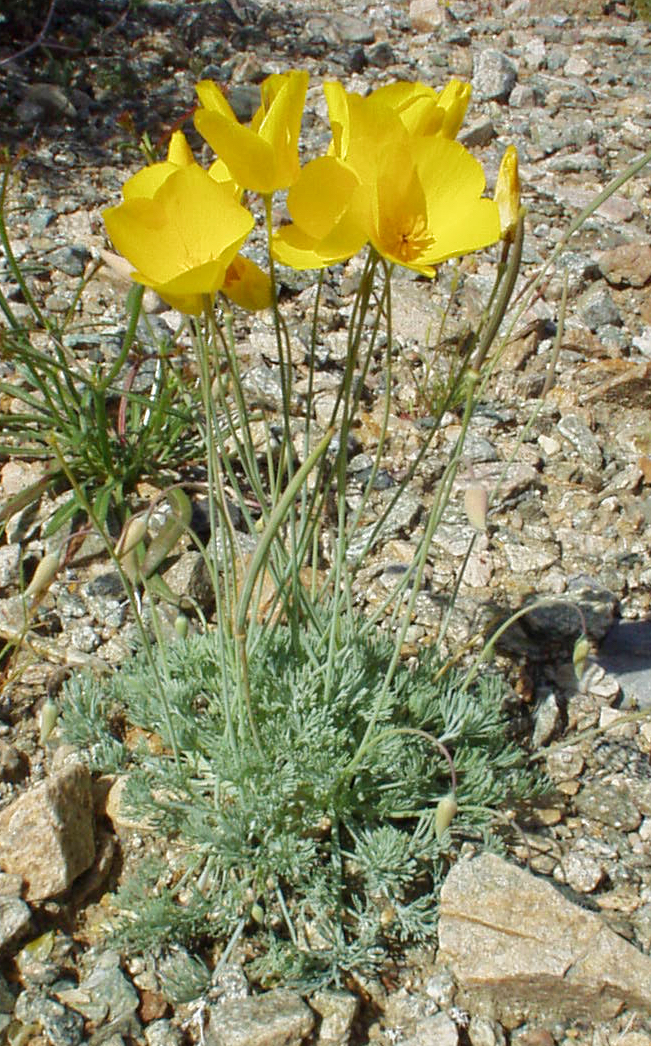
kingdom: Plantae
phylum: Tracheophyta
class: Magnoliopsida
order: Ranunculales
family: Papaveraceae
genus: Eschscholzia
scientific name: Eschscholzia glyptosperma
